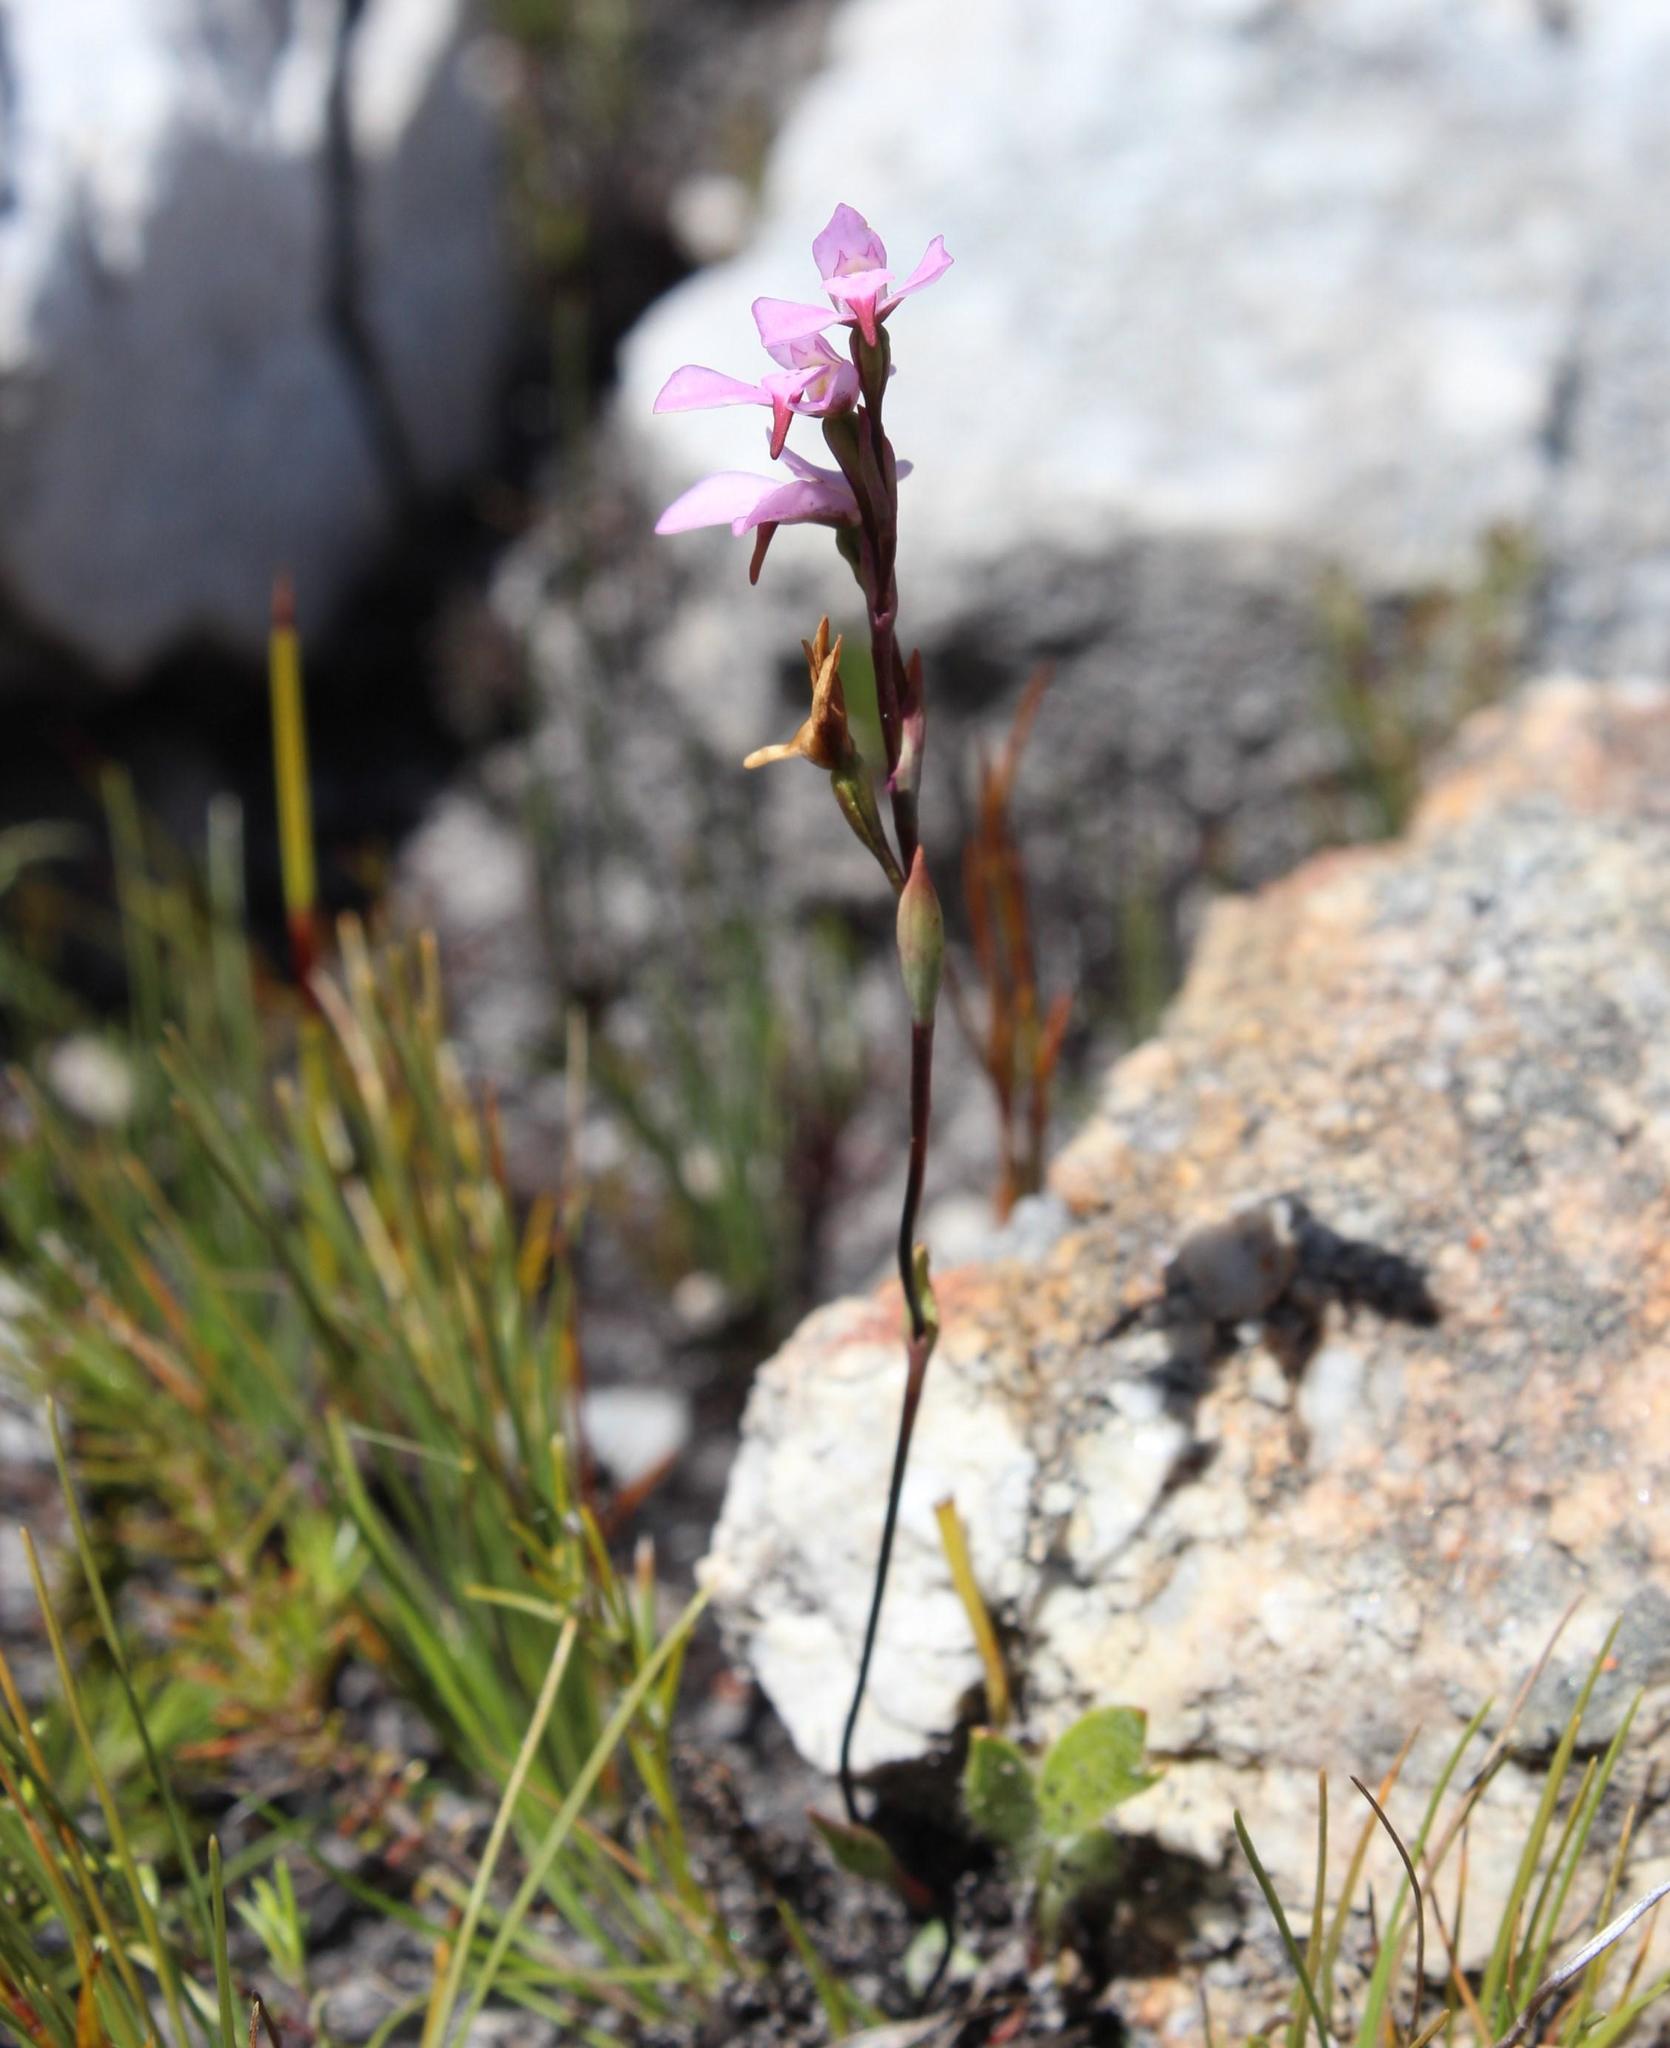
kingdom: Plantae
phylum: Tracheophyta
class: Liliopsida
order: Asparagales
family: Orchidaceae
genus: Disa
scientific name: Disa obliqua
